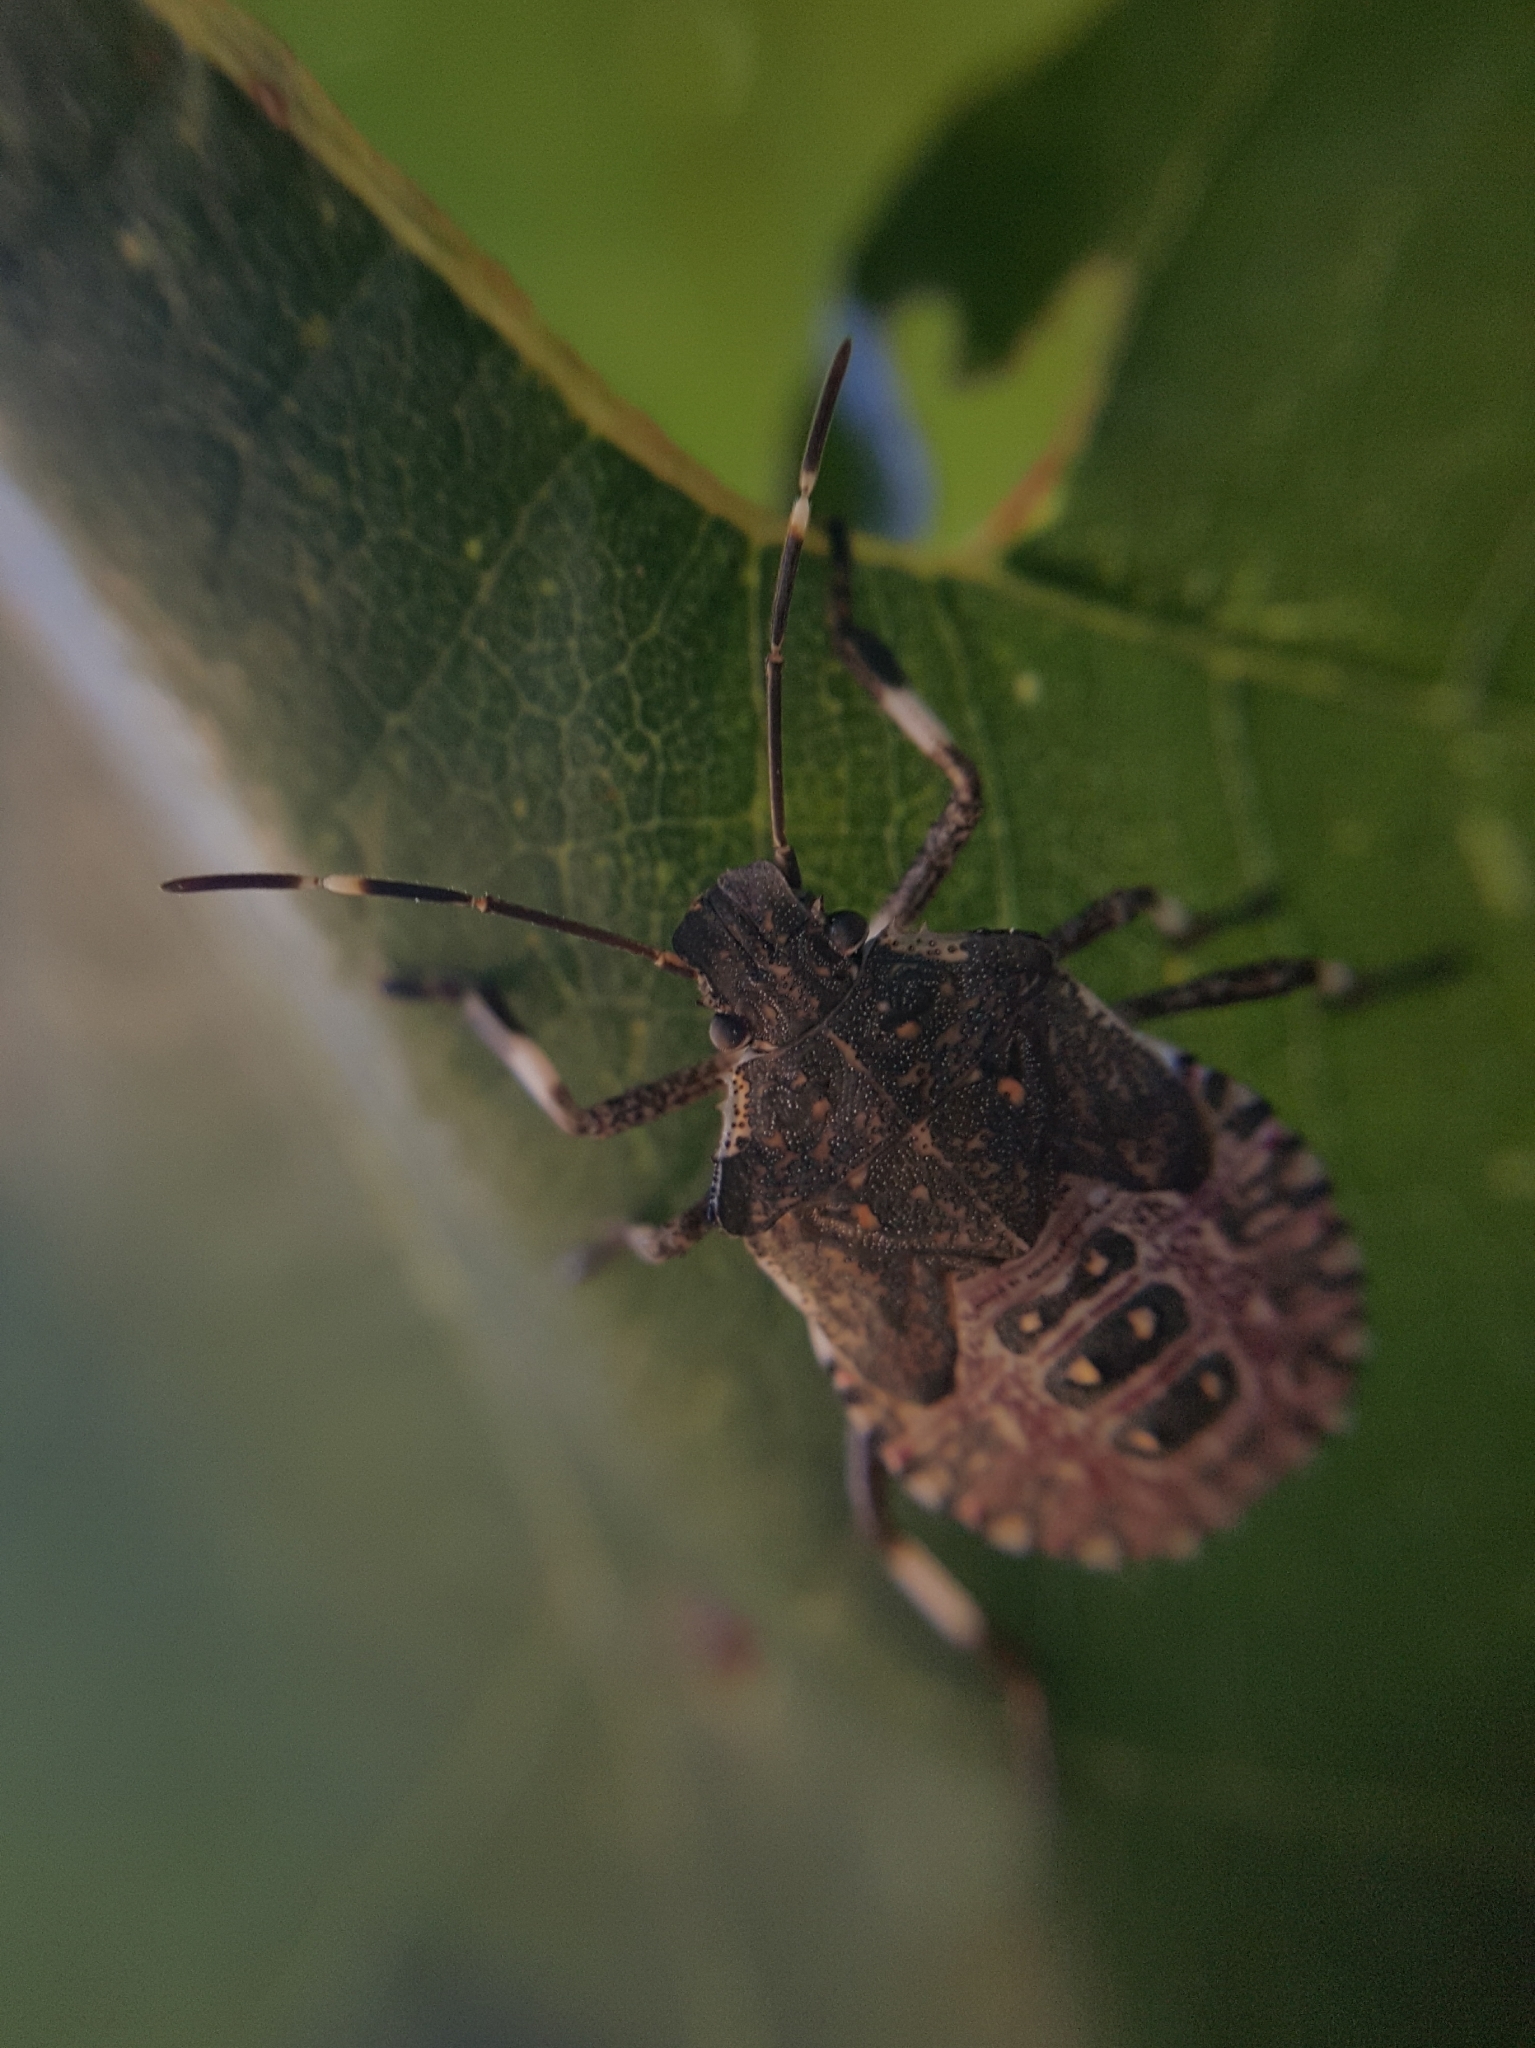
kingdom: Animalia
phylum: Arthropoda
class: Insecta
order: Hemiptera
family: Pentatomidae
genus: Halyomorpha
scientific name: Halyomorpha halys
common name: Brown marmorated stink bug
